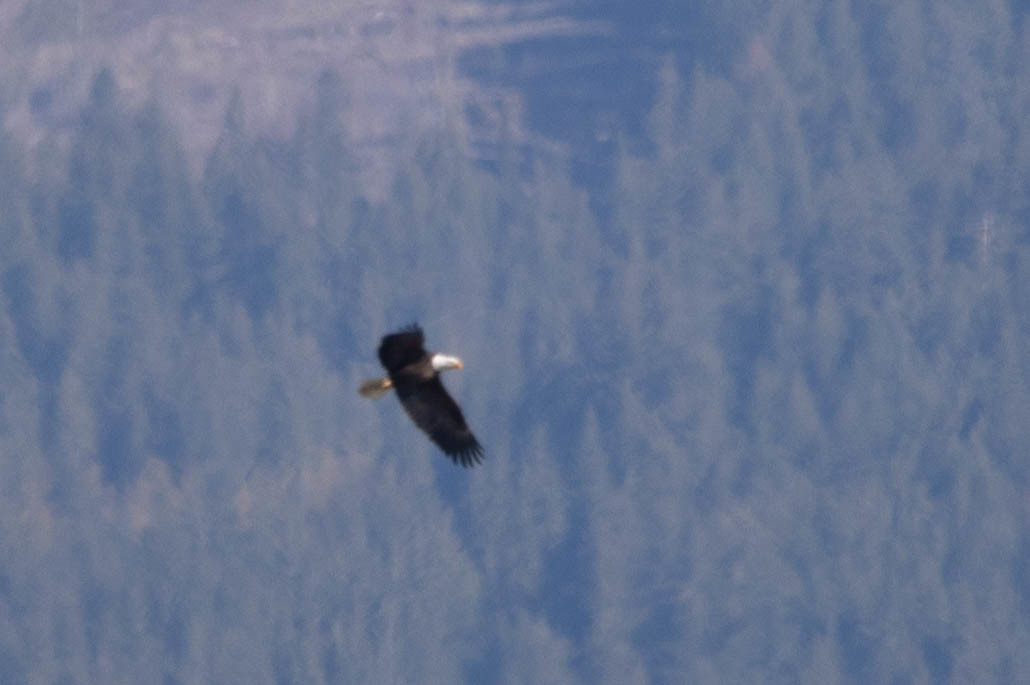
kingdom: Animalia
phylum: Chordata
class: Aves
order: Accipitriformes
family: Accipitridae
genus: Haliaeetus
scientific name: Haliaeetus leucocephalus
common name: Bald eagle
